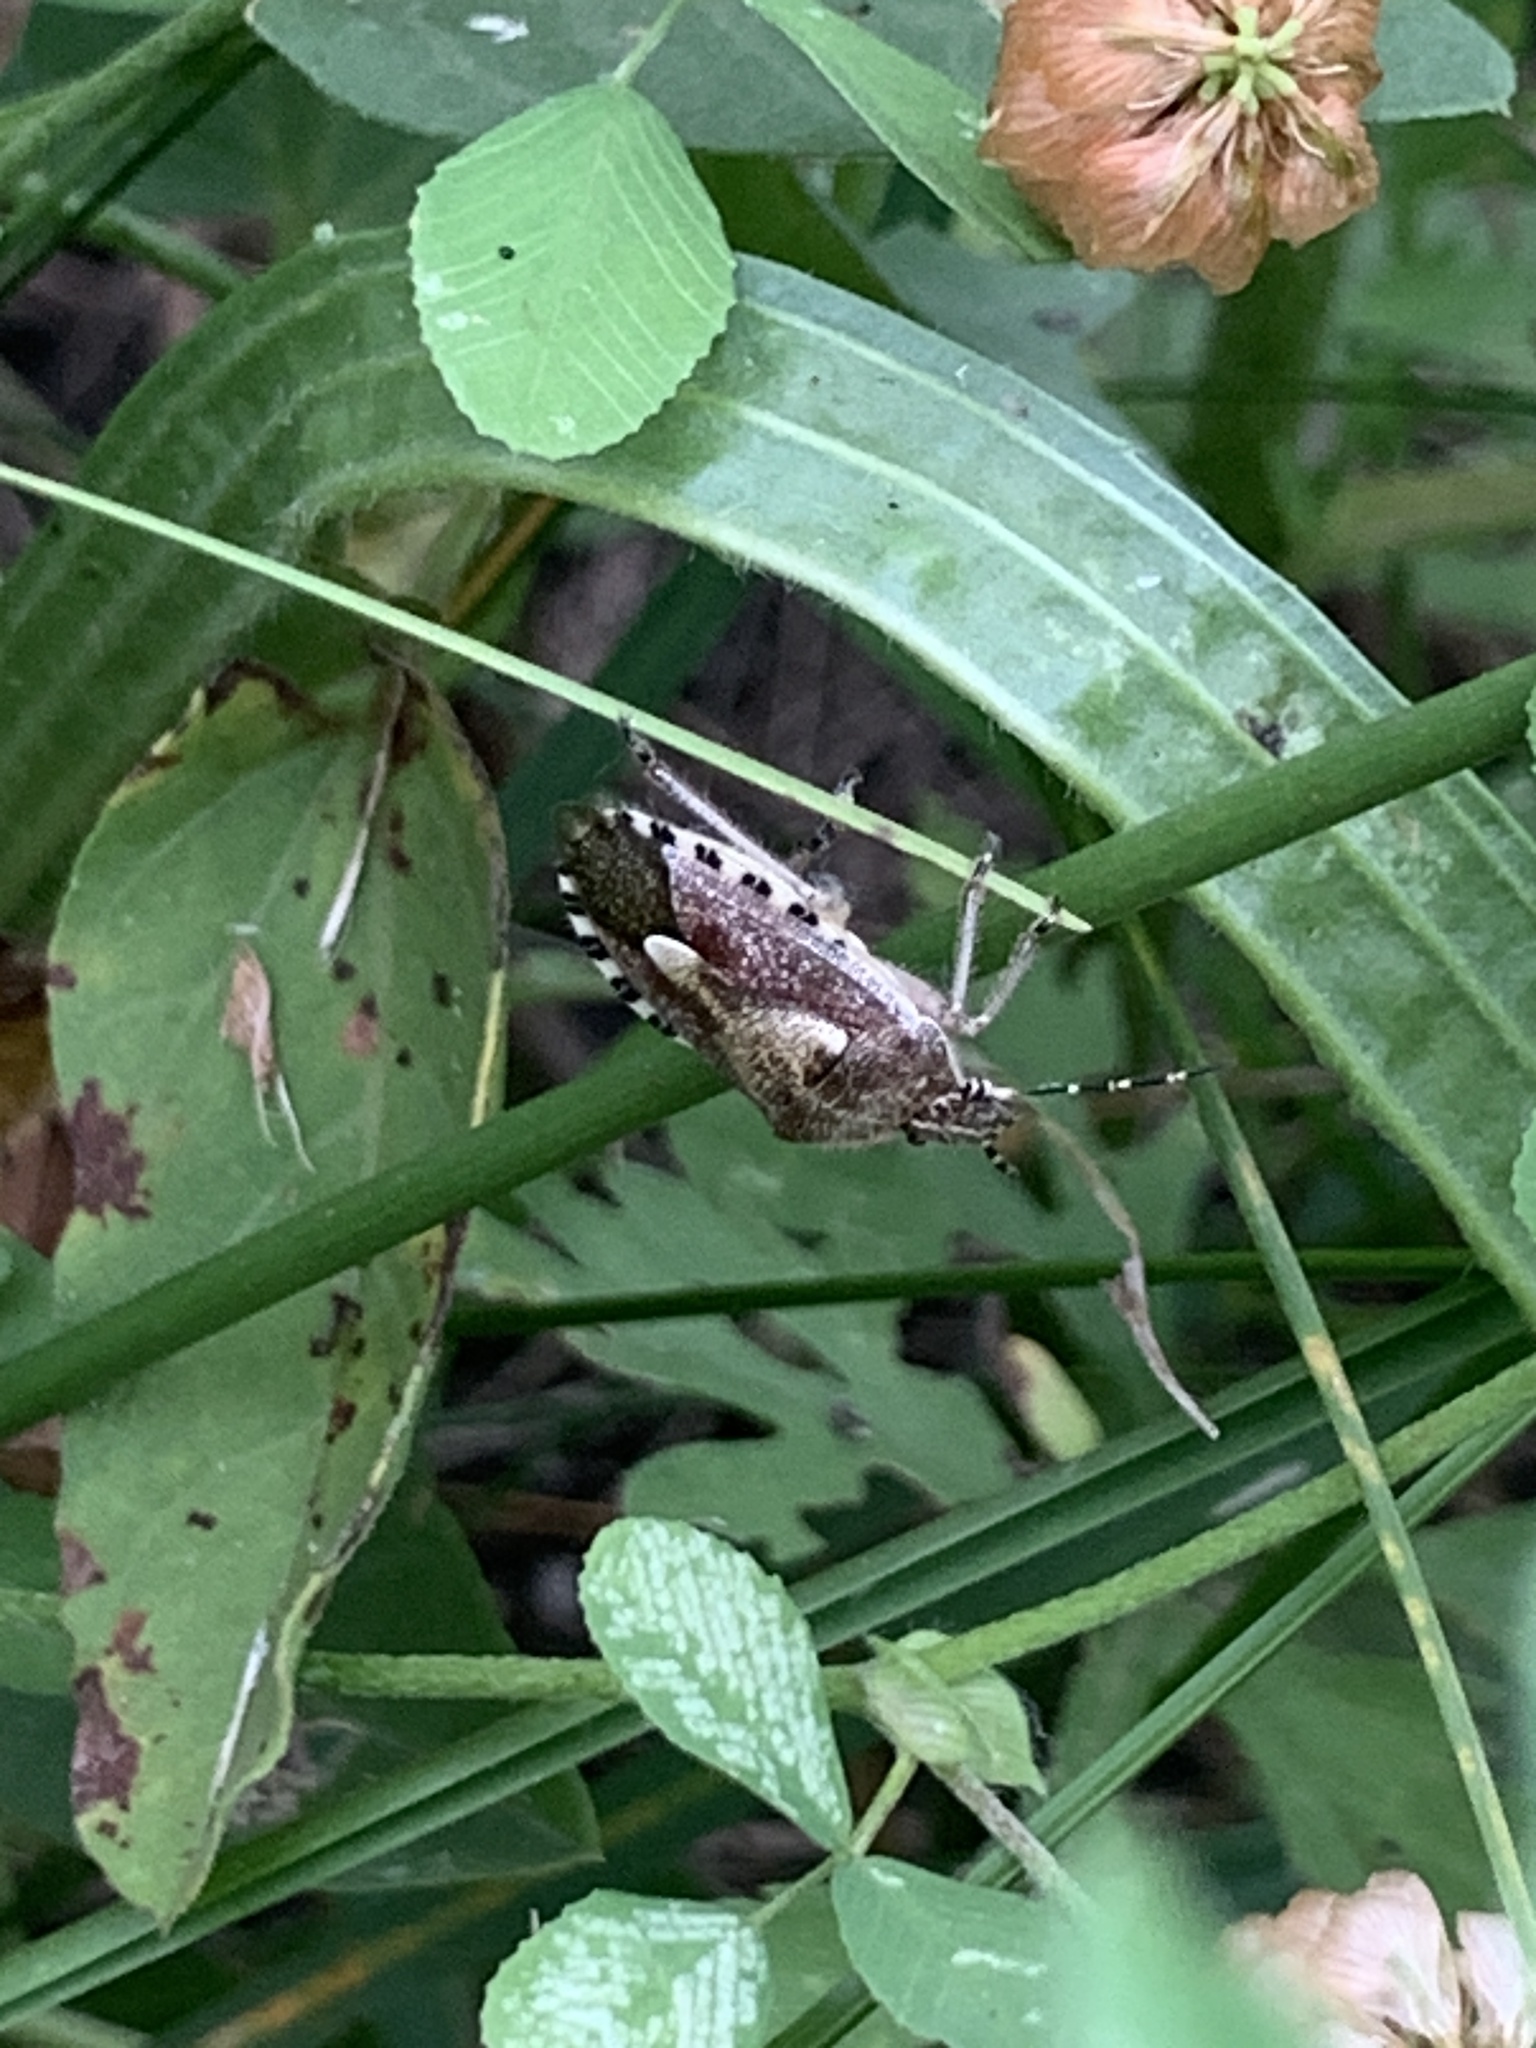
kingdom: Animalia
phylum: Arthropoda
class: Insecta
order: Hemiptera
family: Pentatomidae
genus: Dolycoris
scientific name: Dolycoris baccarum
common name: Sloe bug
